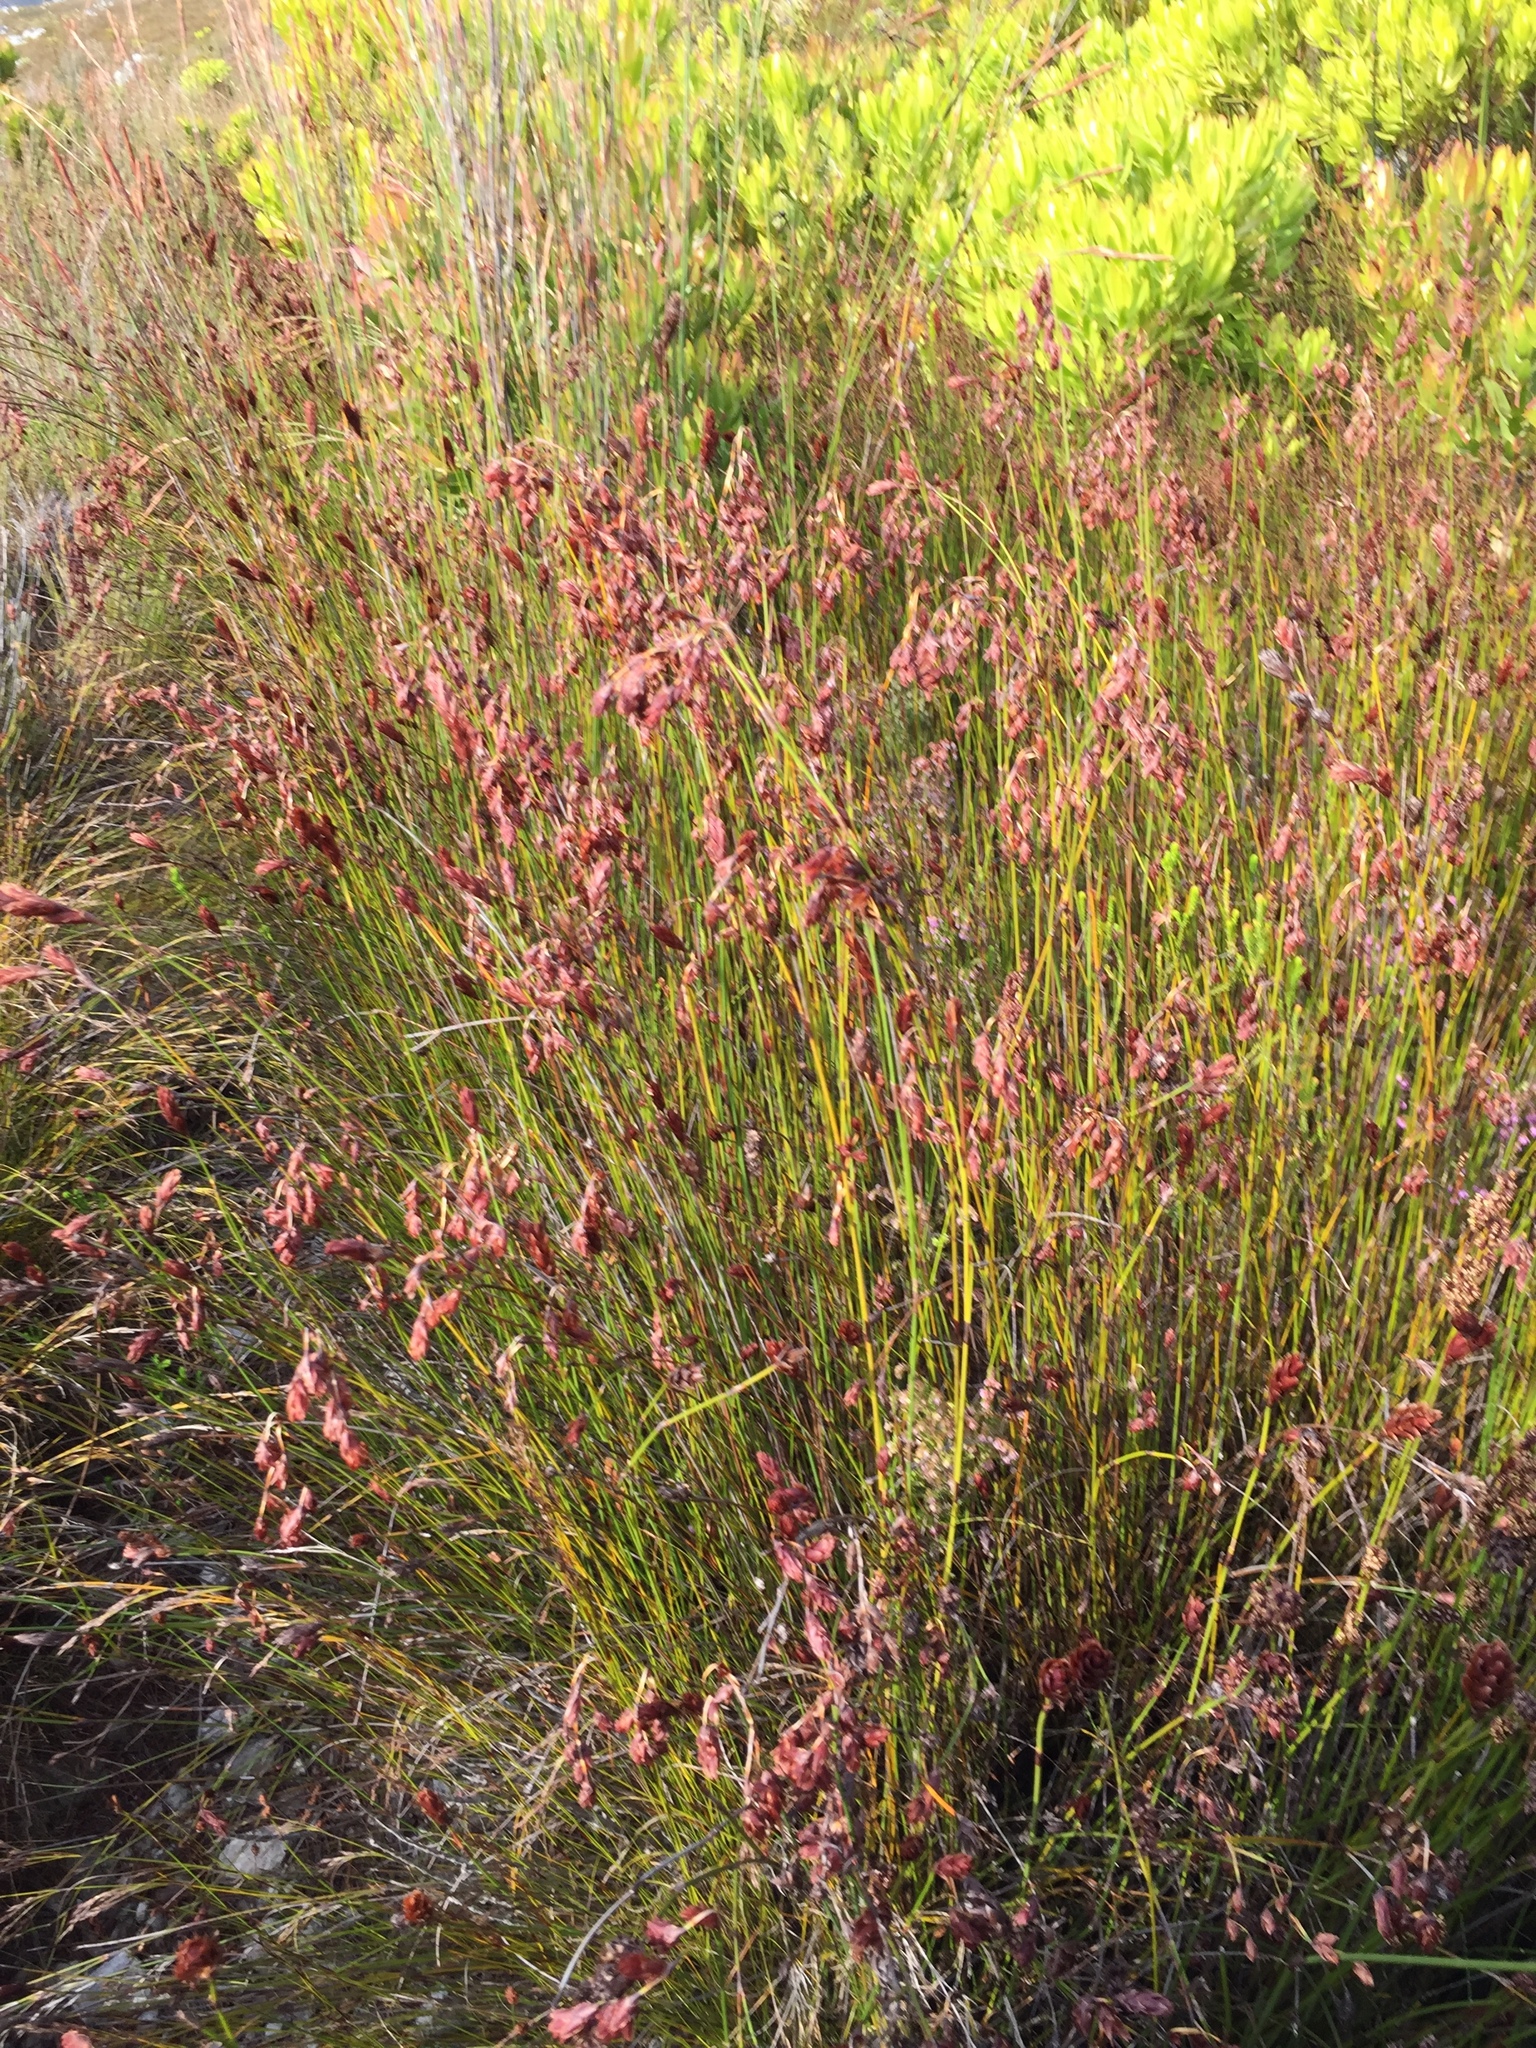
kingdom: Plantae
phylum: Tracheophyta
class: Liliopsida
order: Poales
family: Restionaceae
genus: Restio
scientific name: Restio bifarius
